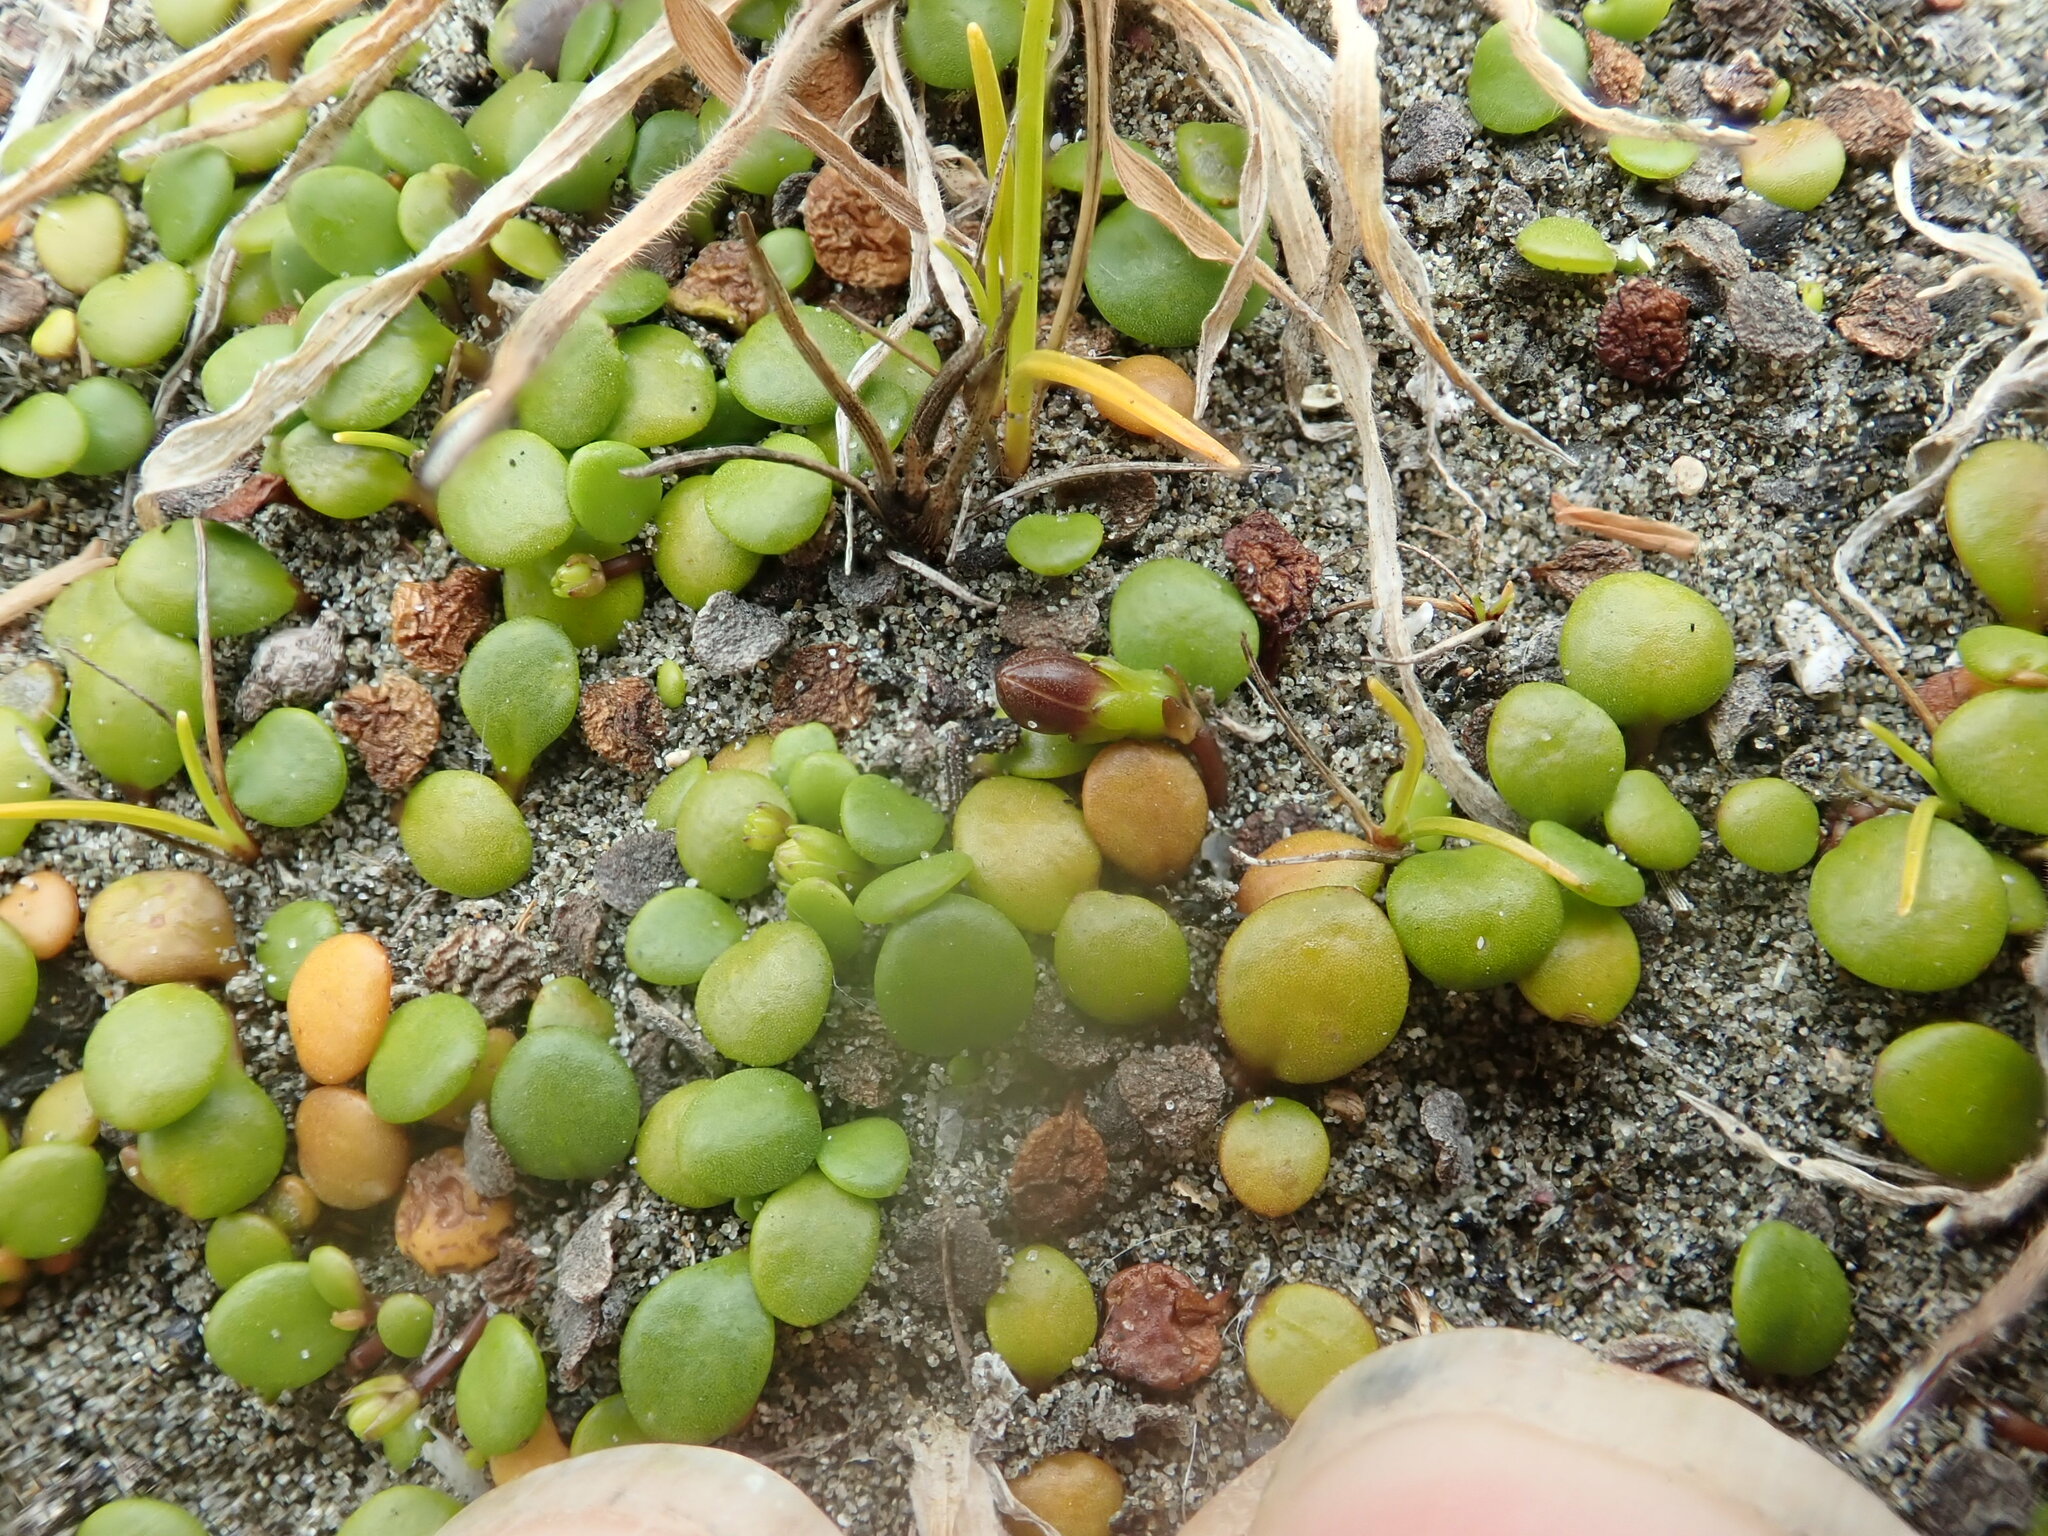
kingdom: Plantae
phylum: Tracheophyta
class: Magnoliopsida
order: Asterales
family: Goodeniaceae
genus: Goodenia
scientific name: Goodenia heenanii
